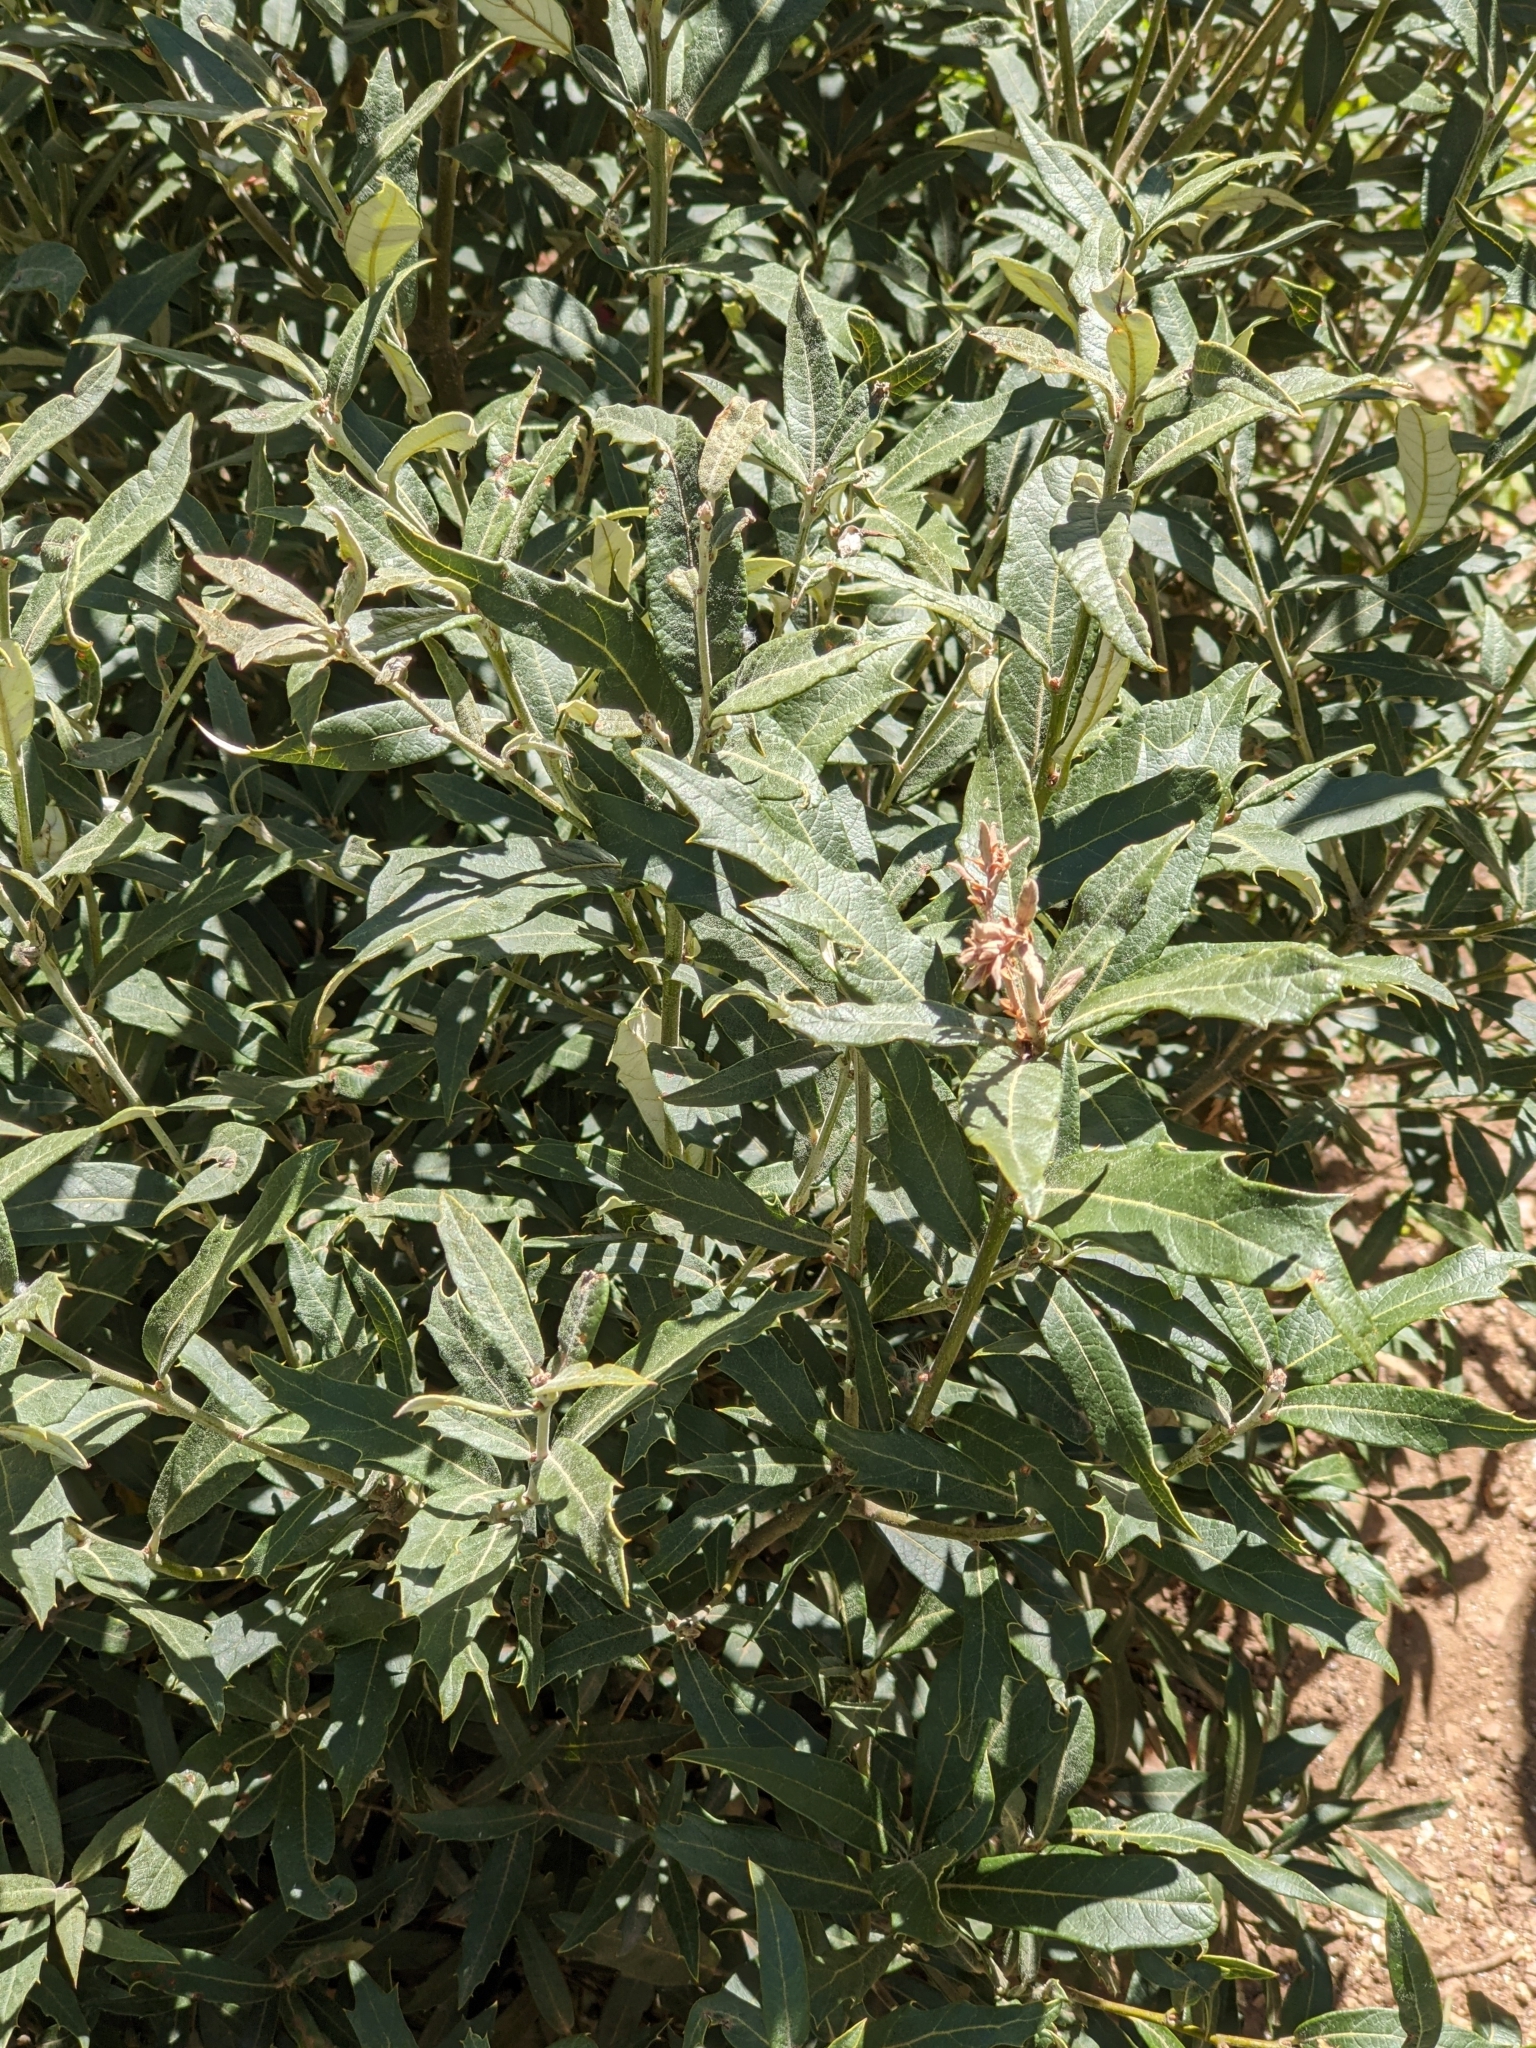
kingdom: Plantae
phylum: Tracheophyta
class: Magnoliopsida
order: Fagales
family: Fagaceae
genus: Quercus
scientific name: Quercus hypoleucoides
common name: Silverleaf oak
